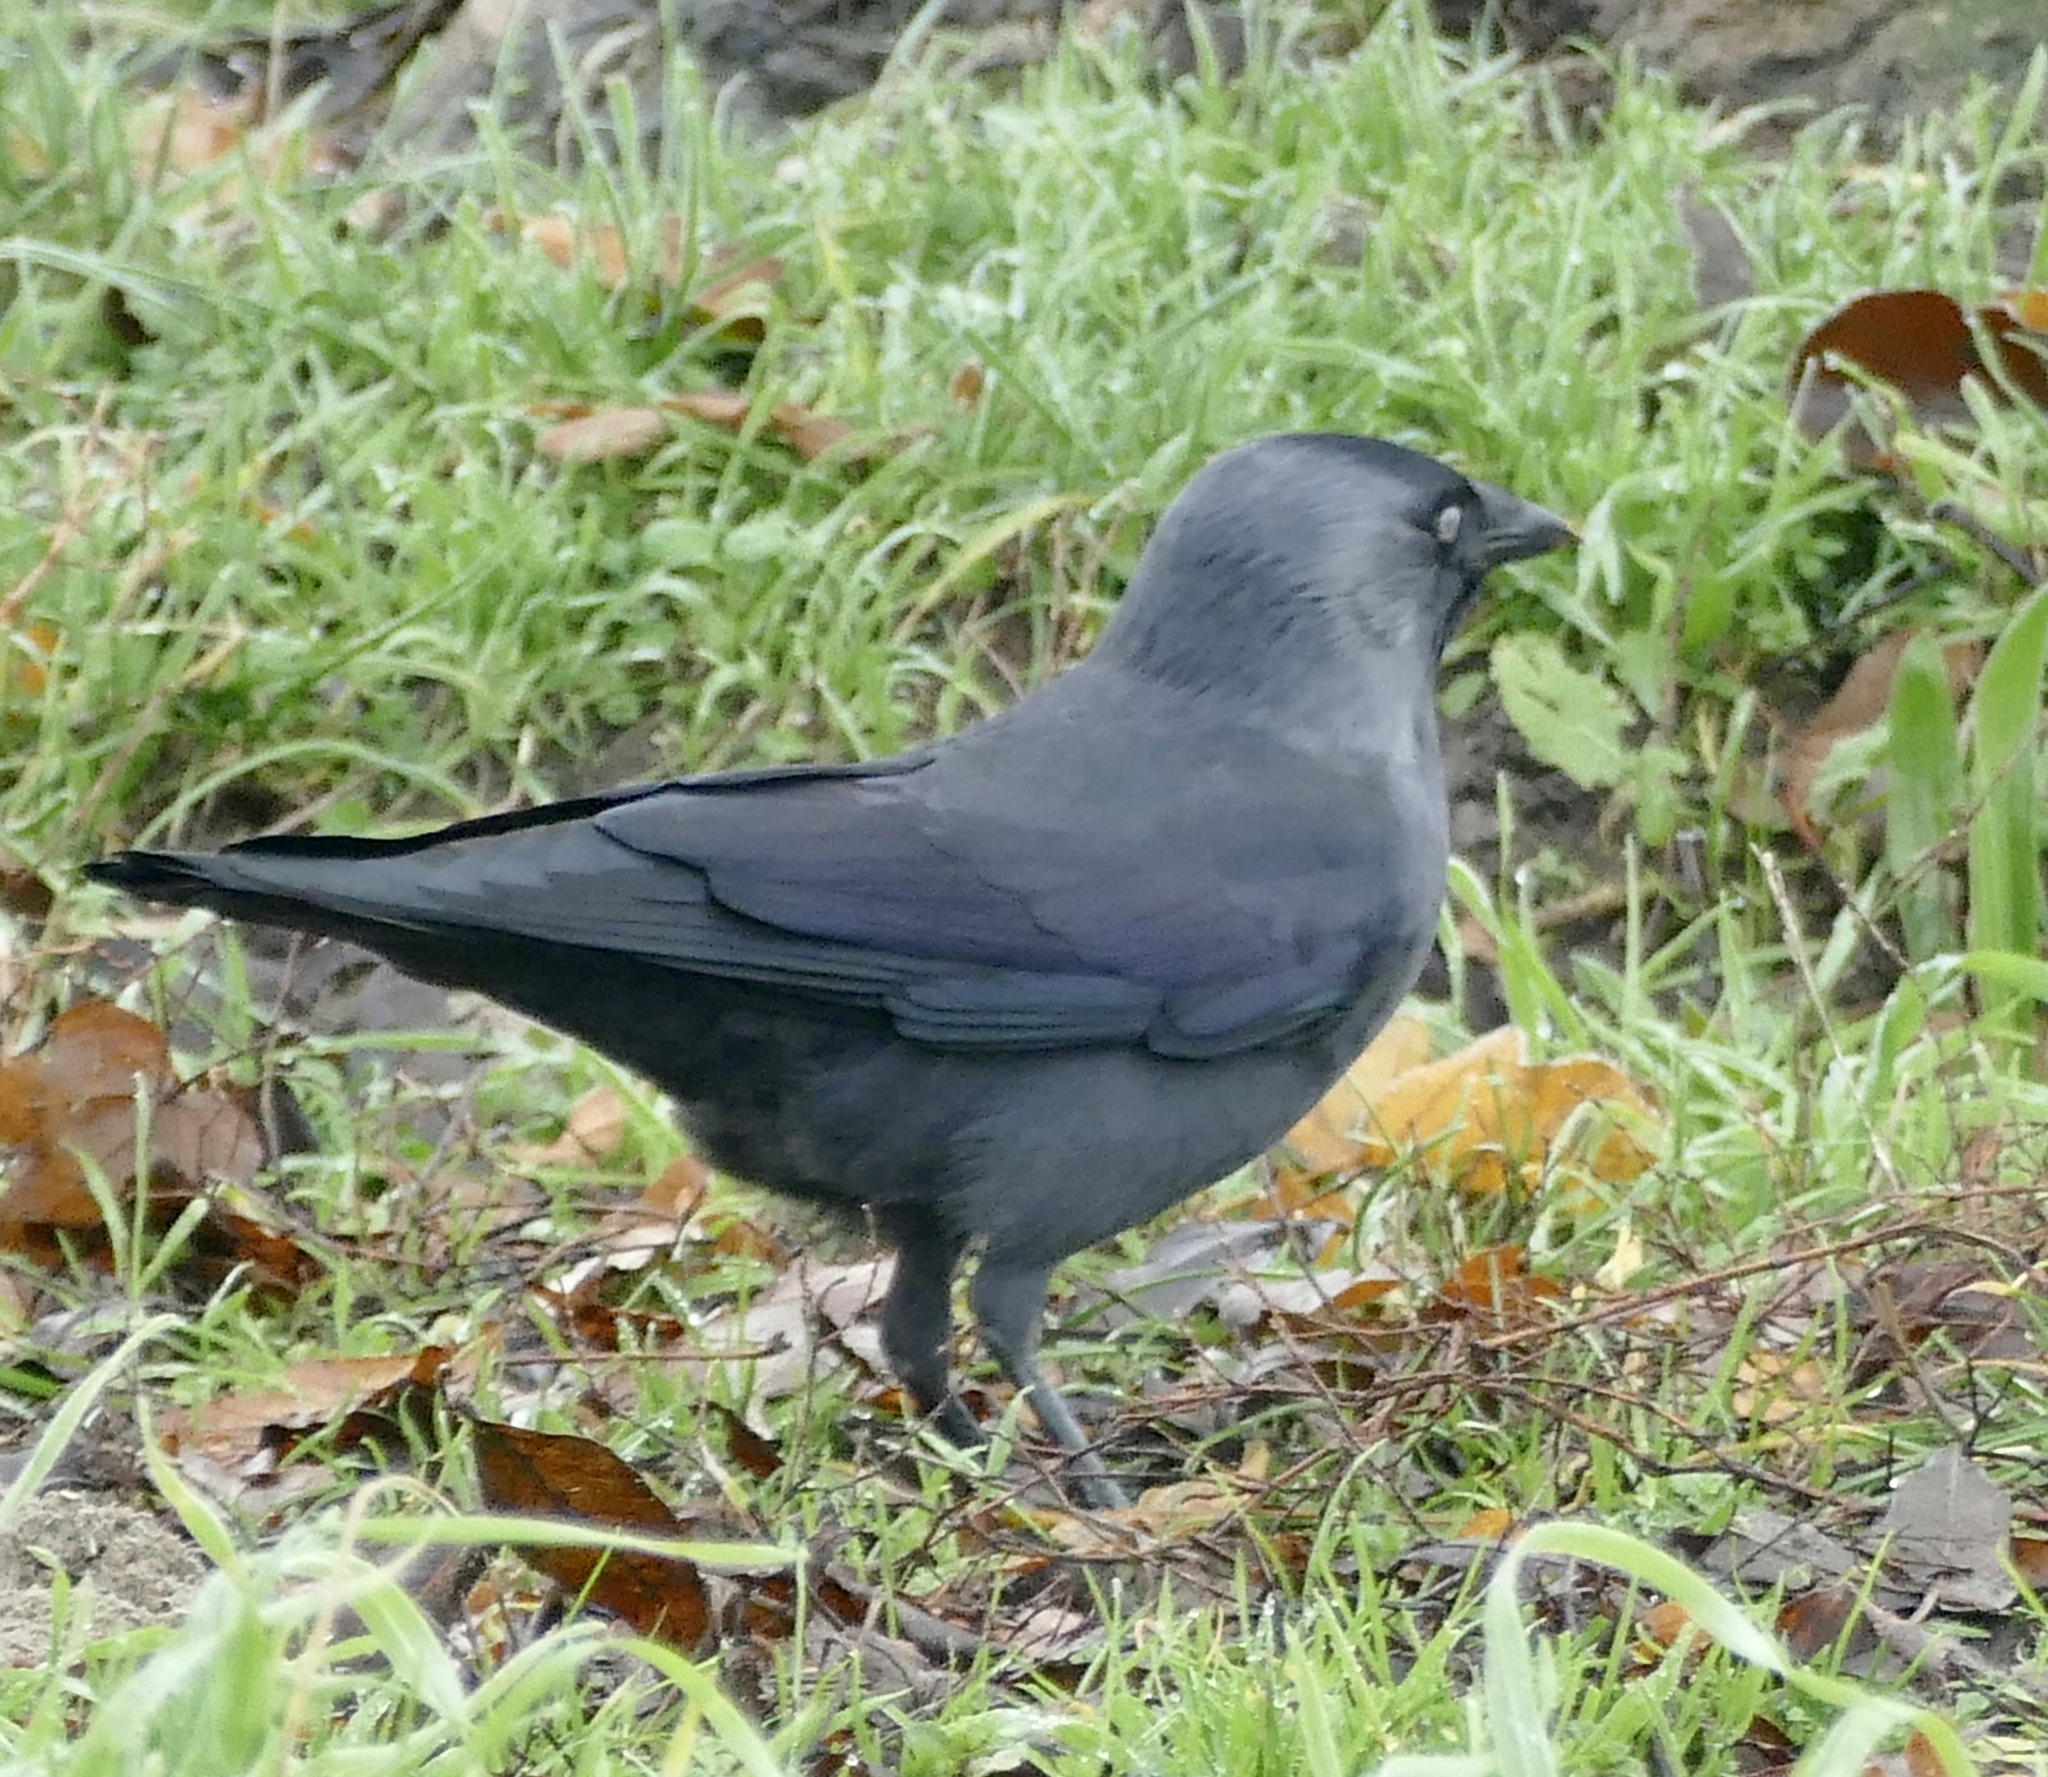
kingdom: Animalia
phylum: Chordata
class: Aves
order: Passeriformes
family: Corvidae
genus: Coloeus
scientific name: Coloeus monedula
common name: Western jackdaw
